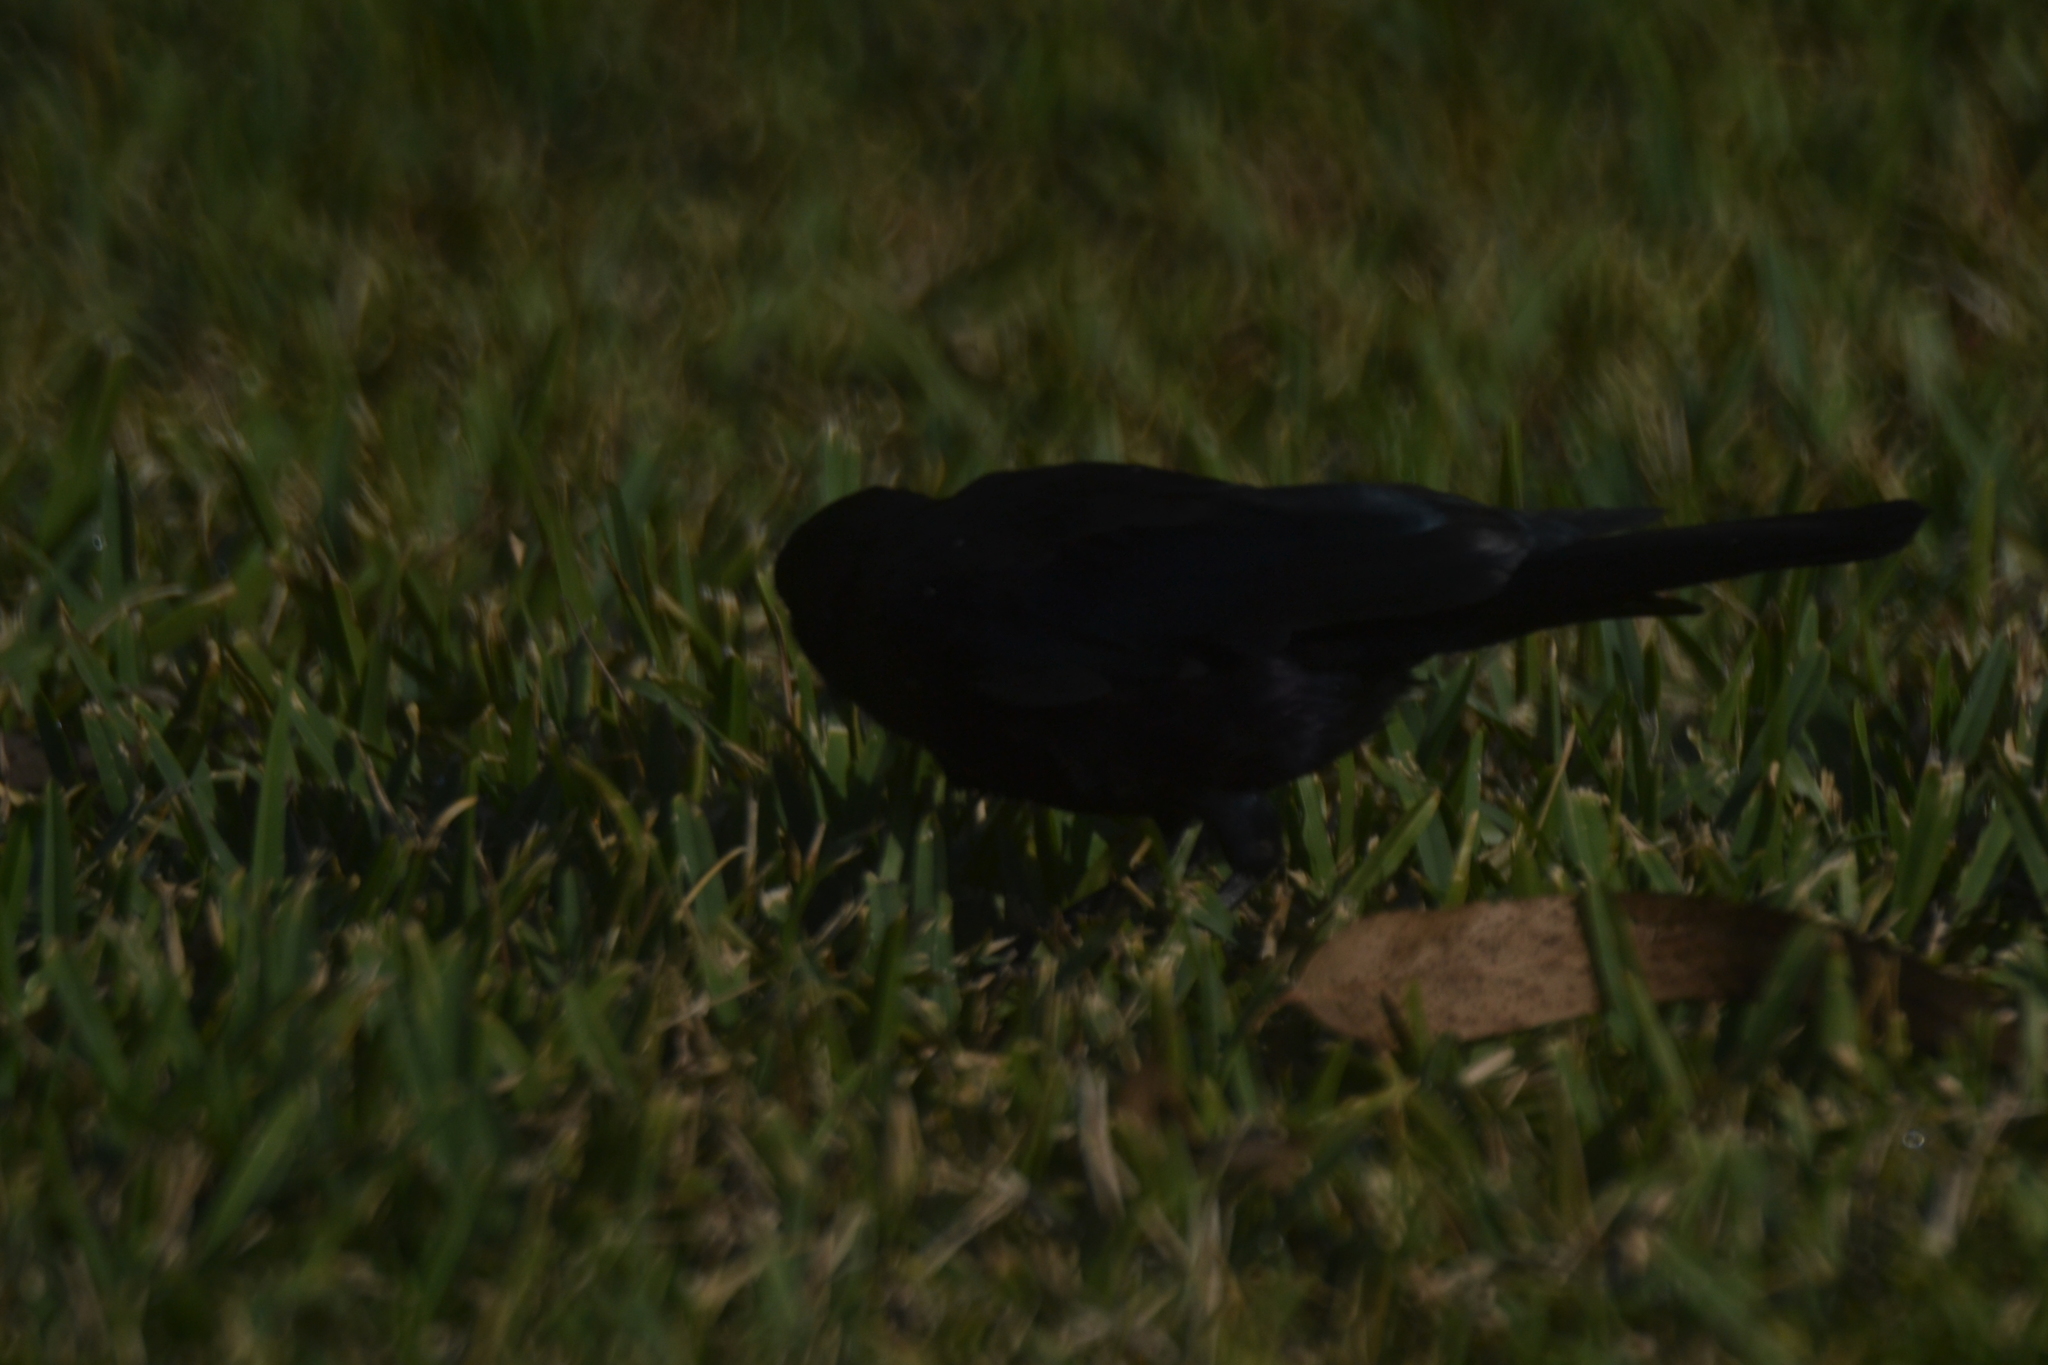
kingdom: Animalia
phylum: Chordata
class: Aves
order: Passeriformes
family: Icteridae
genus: Molothrus
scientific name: Molothrus bonariensis
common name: Shiny cowbird
